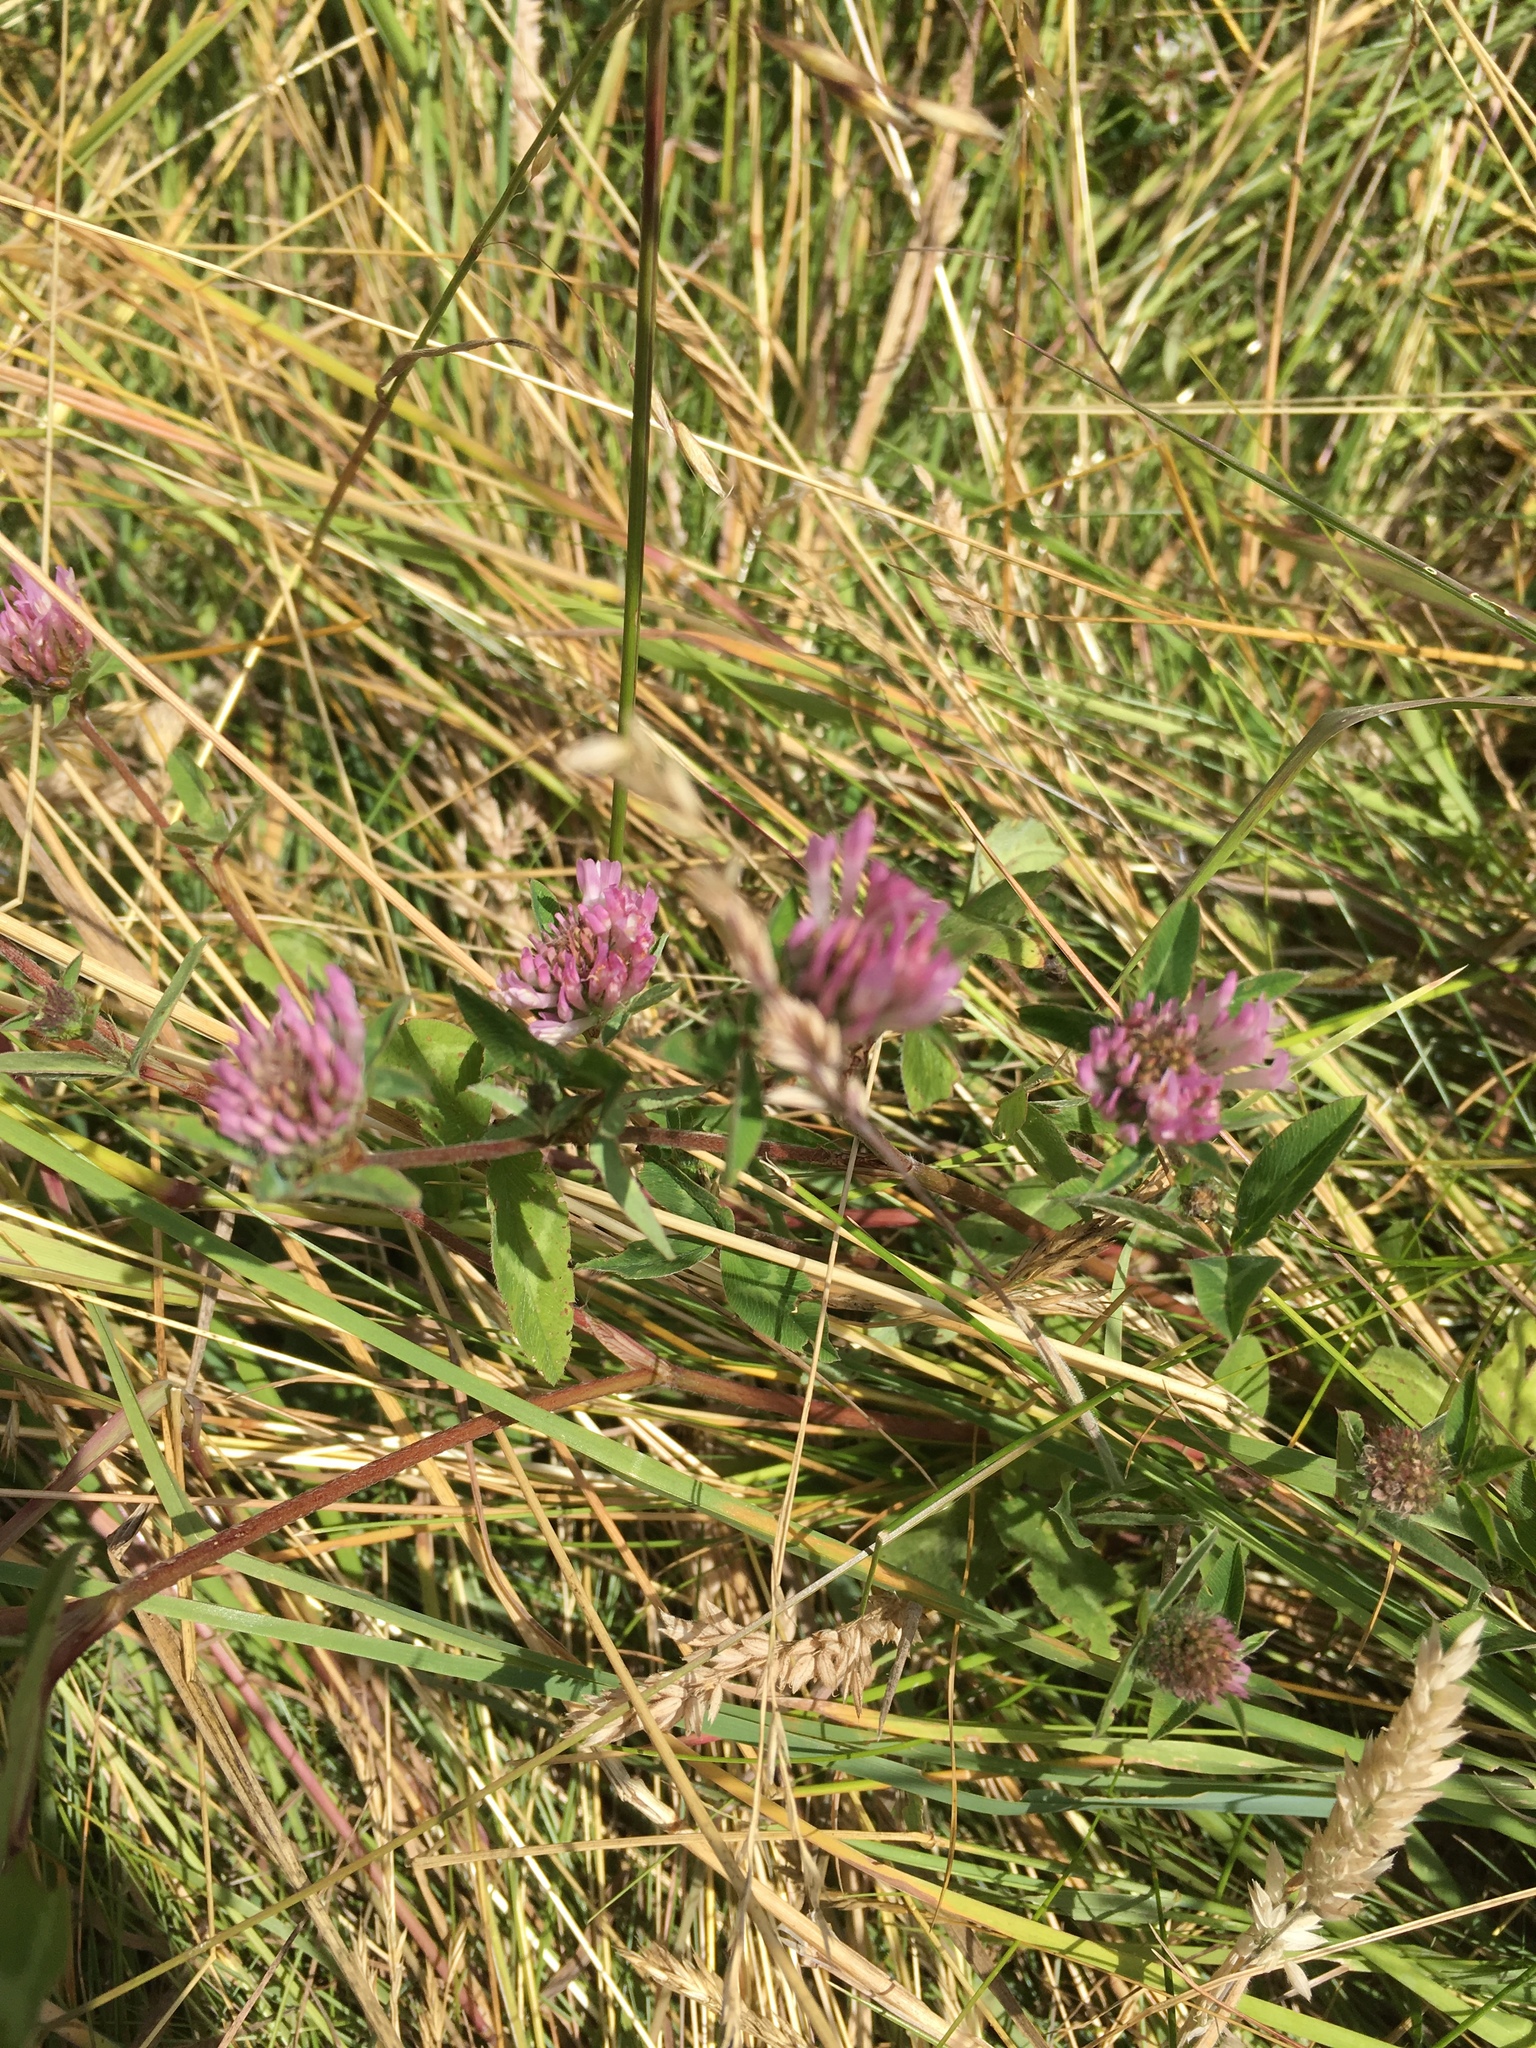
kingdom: Plantae
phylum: Tracheophyta
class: Magnoliopsida
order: Fabales
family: Fabaceae
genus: Trifolium
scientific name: Trifolium pratense
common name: Red clover
